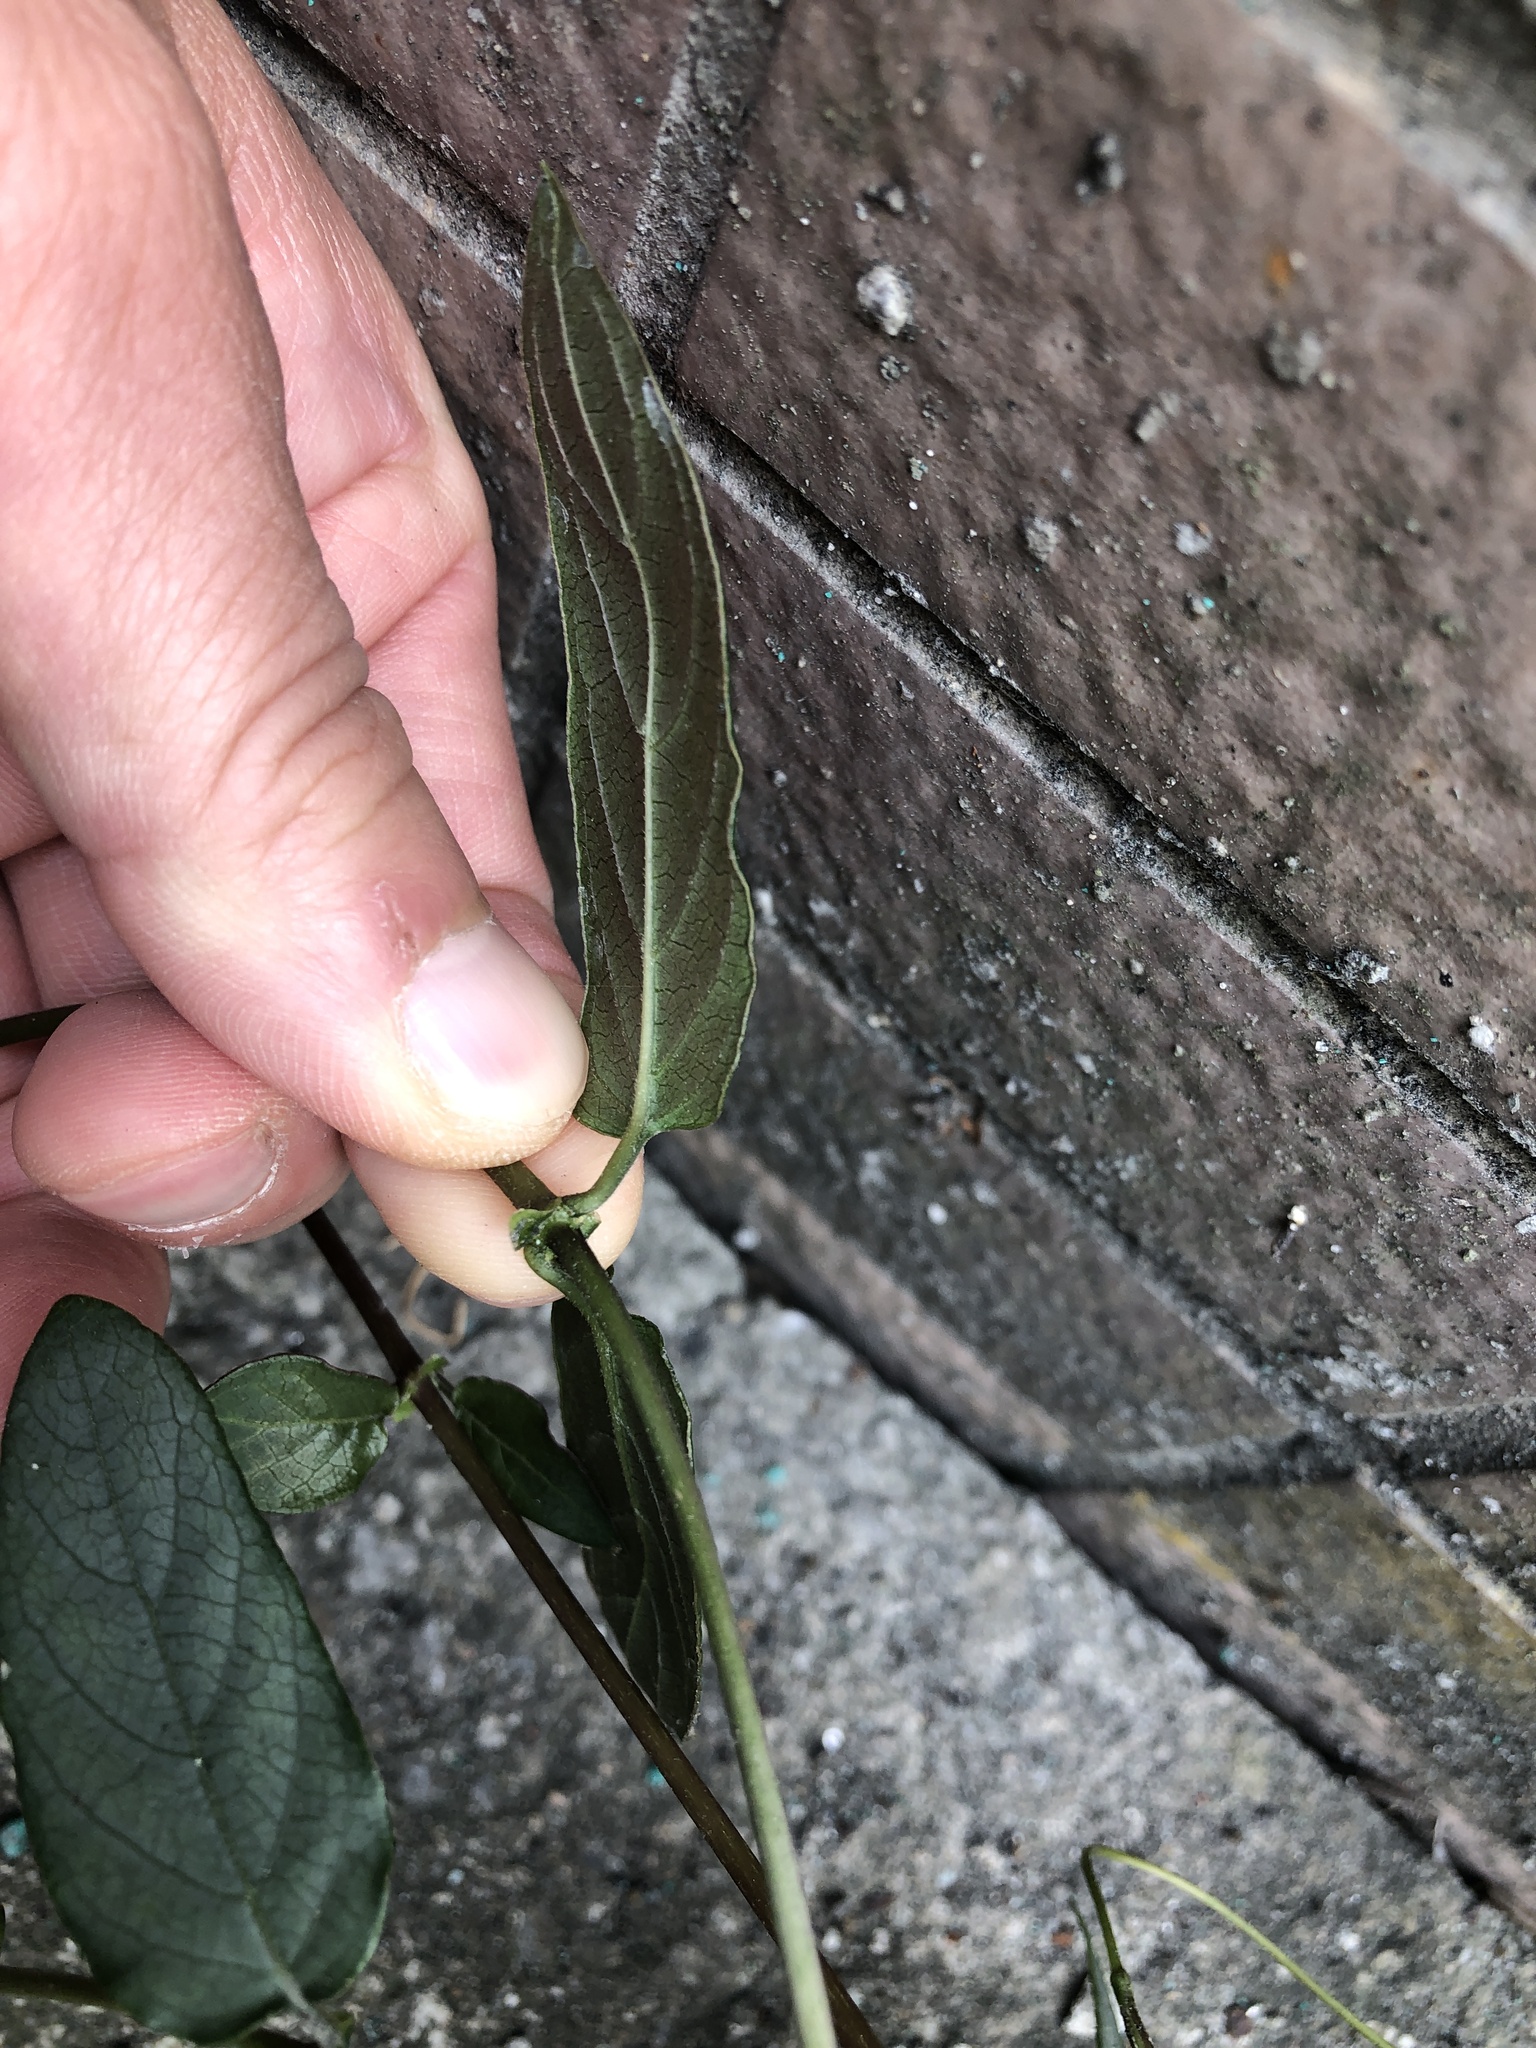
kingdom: Plantae
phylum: Tracheophyta
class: Magnoliopsida
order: Gentianales
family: Rubiaceae
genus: Paederia
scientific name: Paederia foetida
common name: Stinkvine
